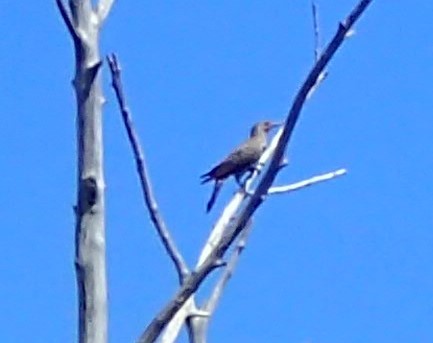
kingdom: Animalia
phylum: Chordata
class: Aves
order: Piciformes
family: Picidae
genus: Colaptes
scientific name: Colaptes auratus
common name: Northern flicker
